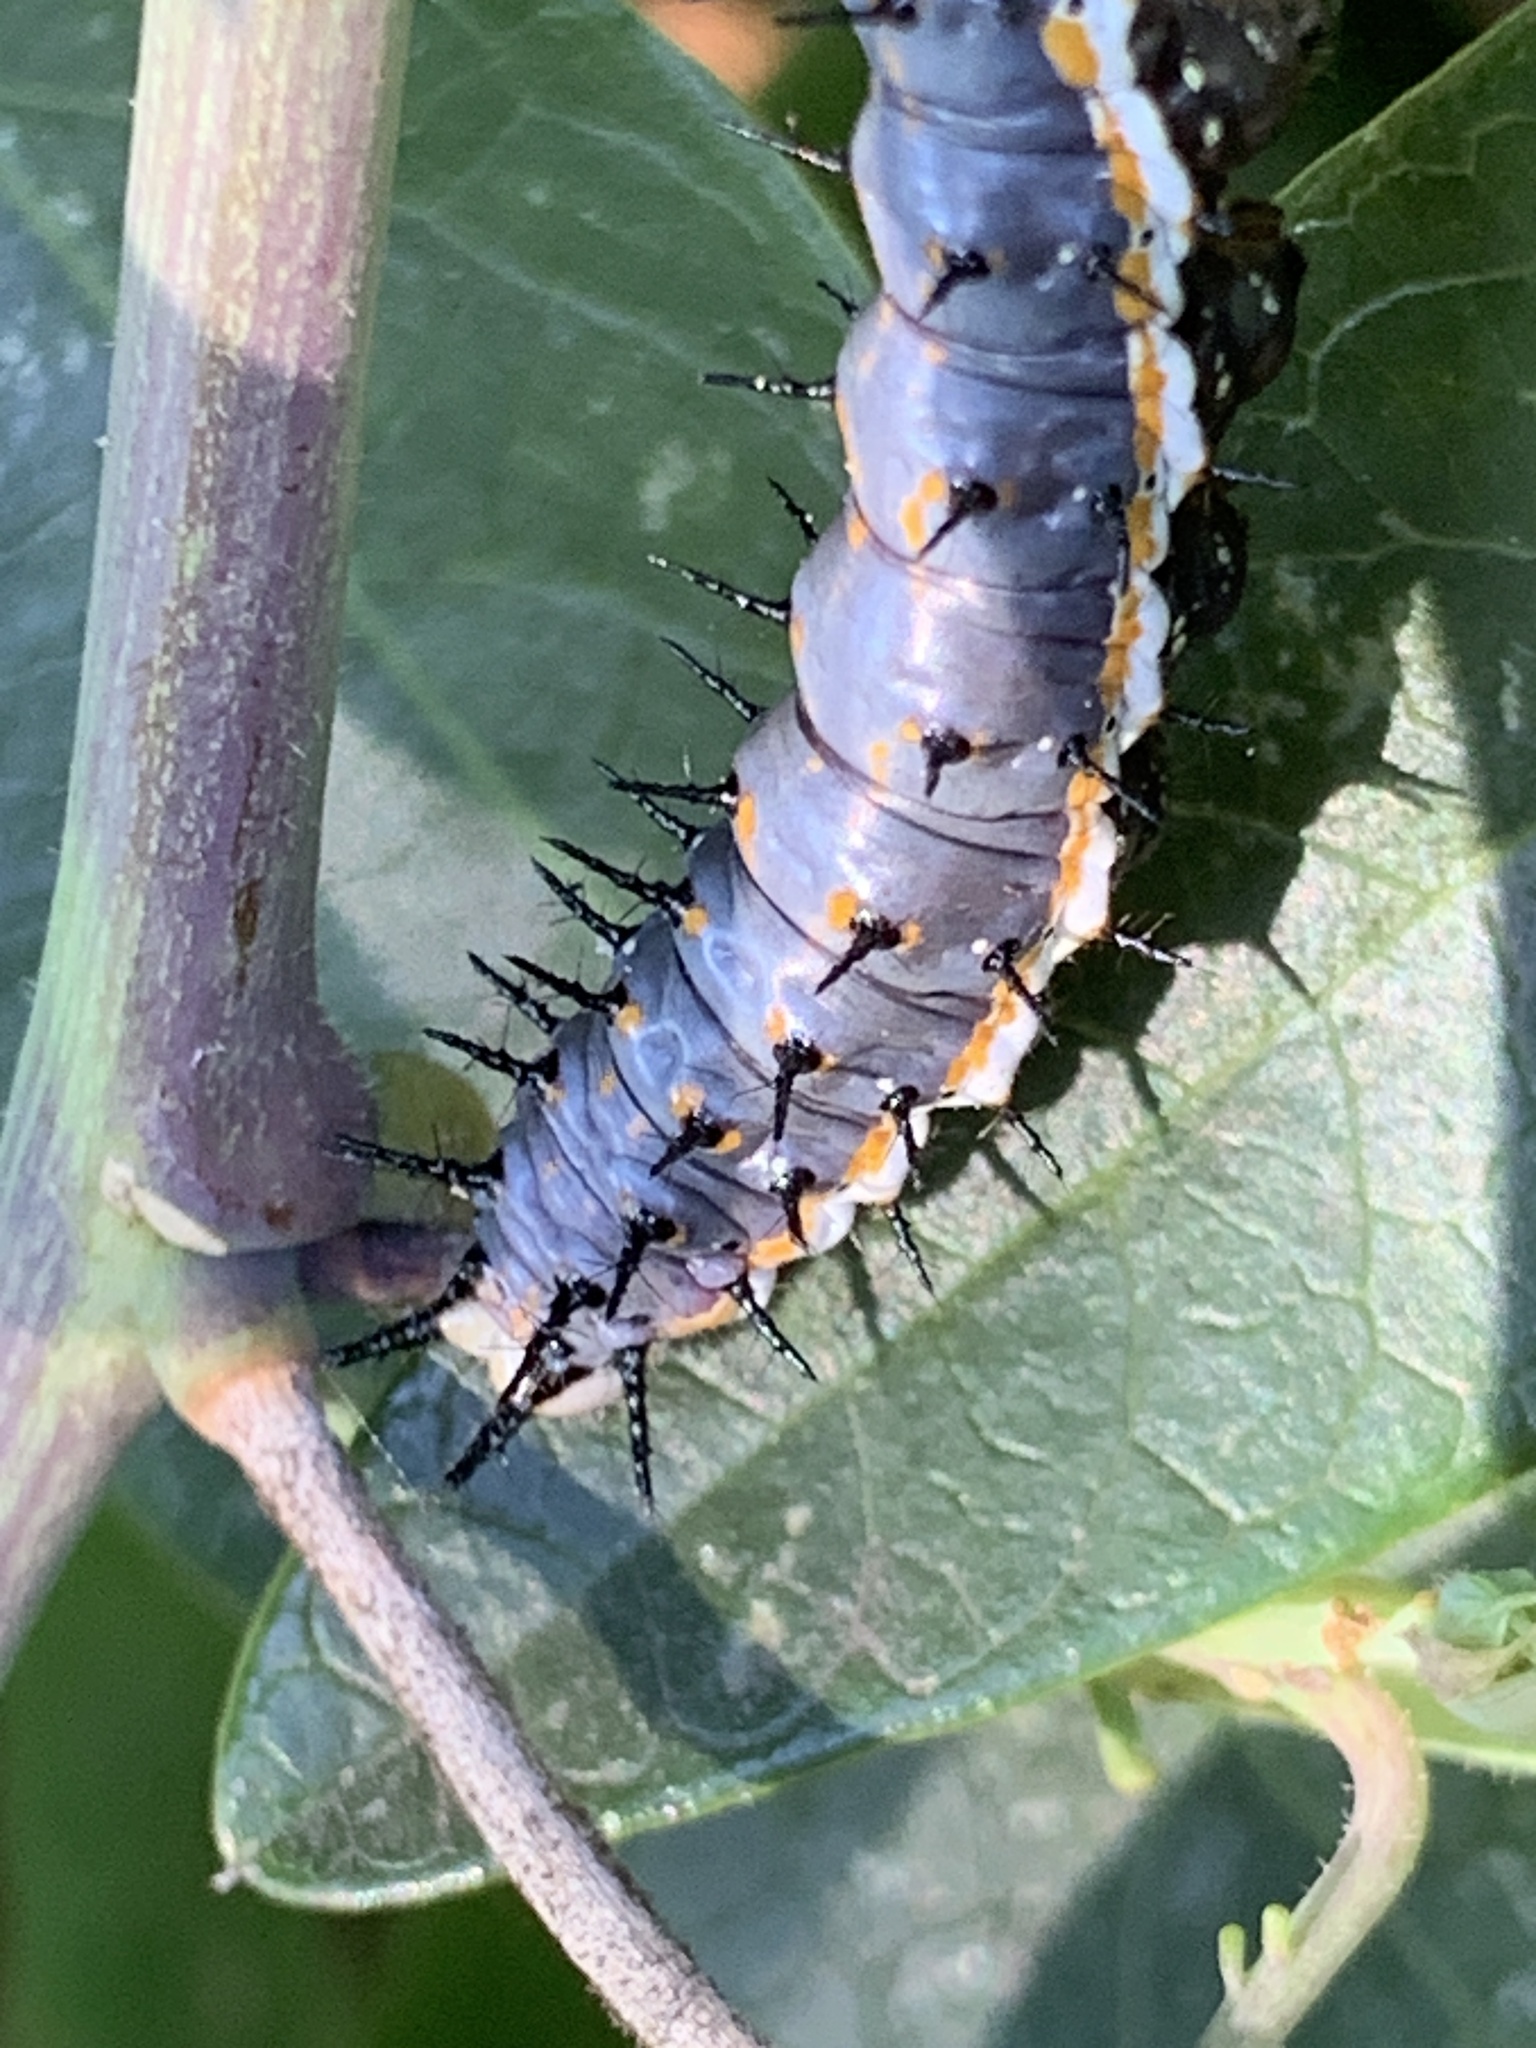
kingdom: Animalia
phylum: Arthropoda
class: Insecta
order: Lepidoptera
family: Nymphalidae
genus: Dione
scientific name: Dione vanillae
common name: Gulf fritillary
